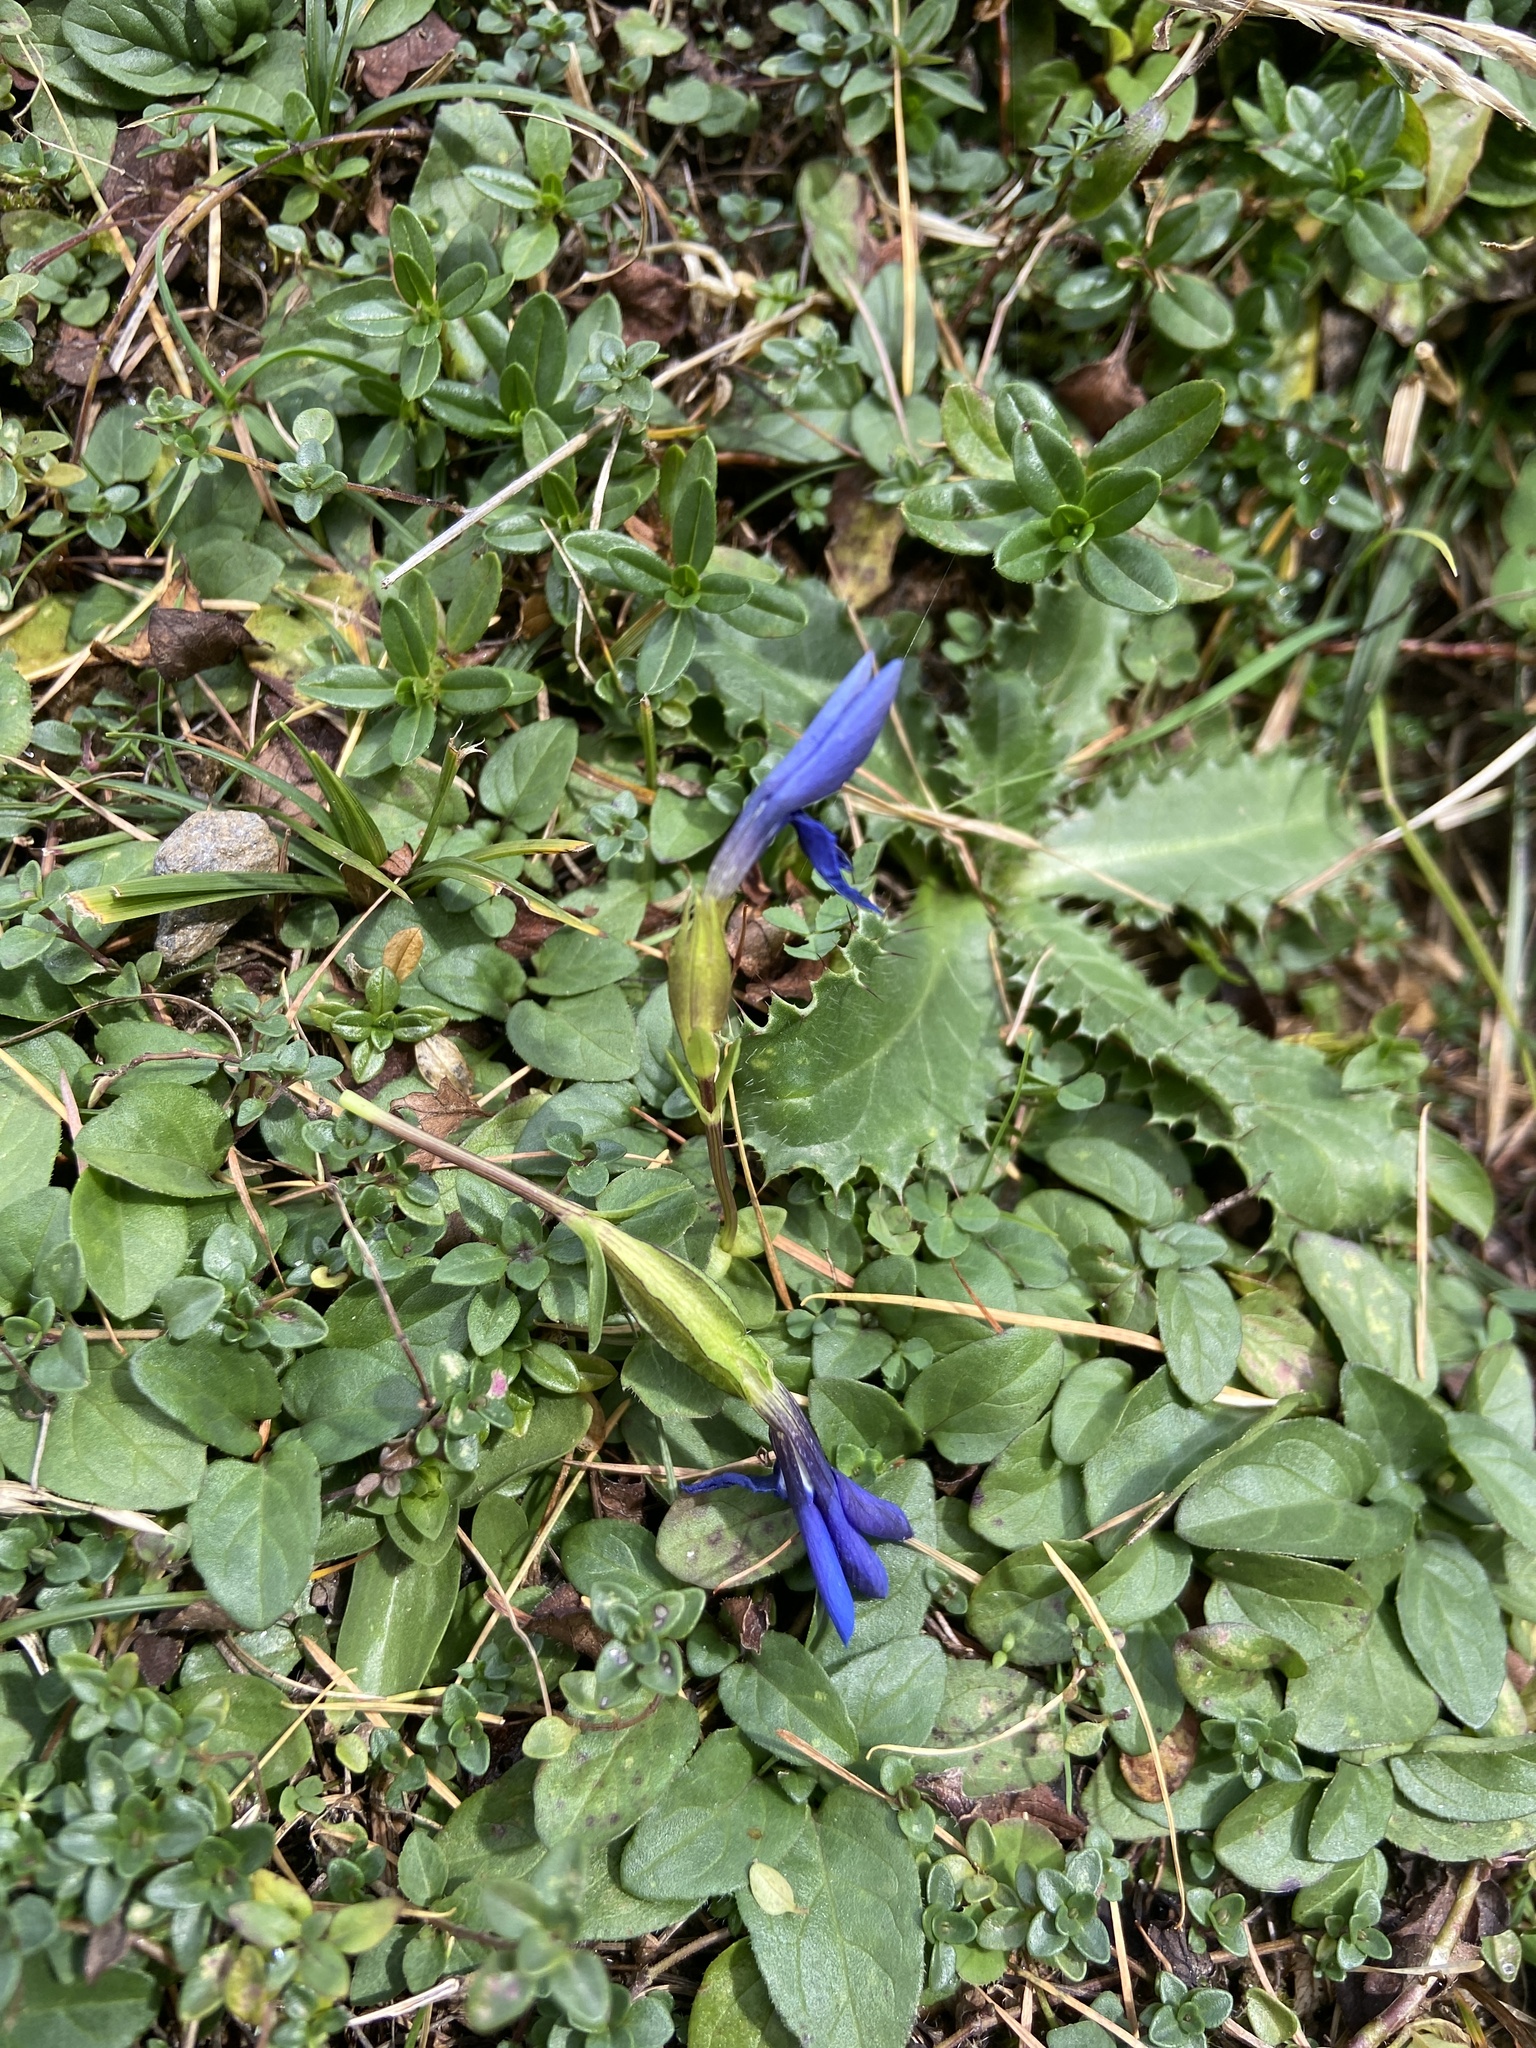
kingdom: Plantae
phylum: Tracheophyta
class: Magnoliopsida
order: Gentianales
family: Gentianaceae
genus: Gentiana
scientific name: Gentiana verna
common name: Spring gentian
